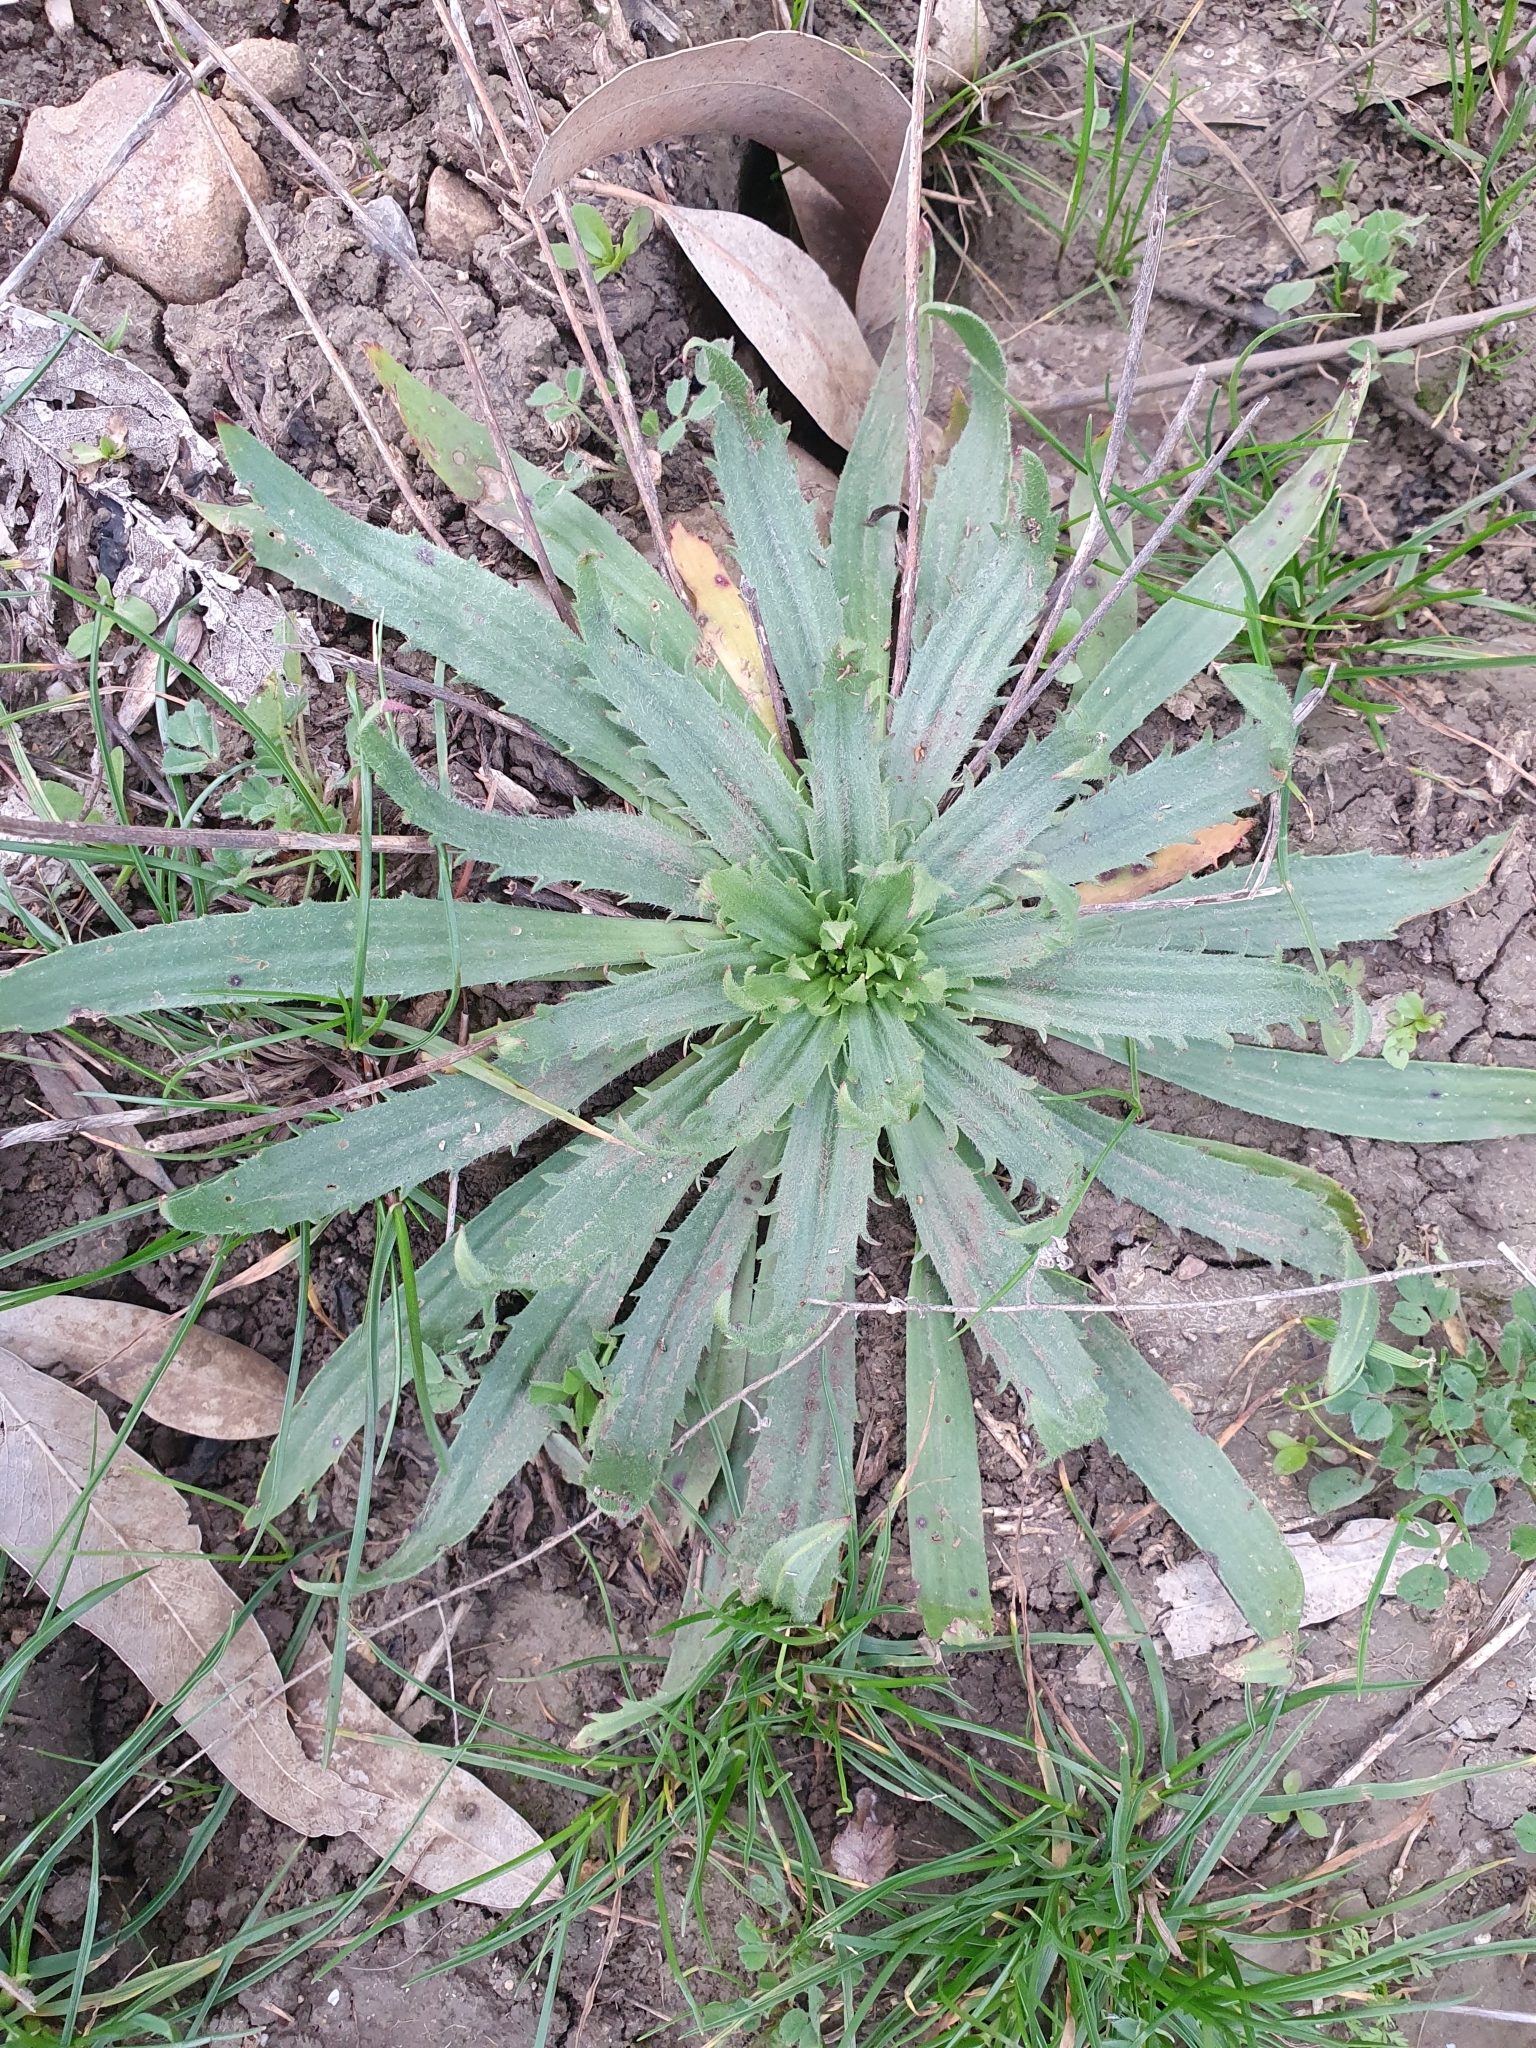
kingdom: Plantae
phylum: Tracheophyta
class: Magnoliopsida
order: Lamiales
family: Plantaginaceae
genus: Plantago
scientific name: Plantago serraria
